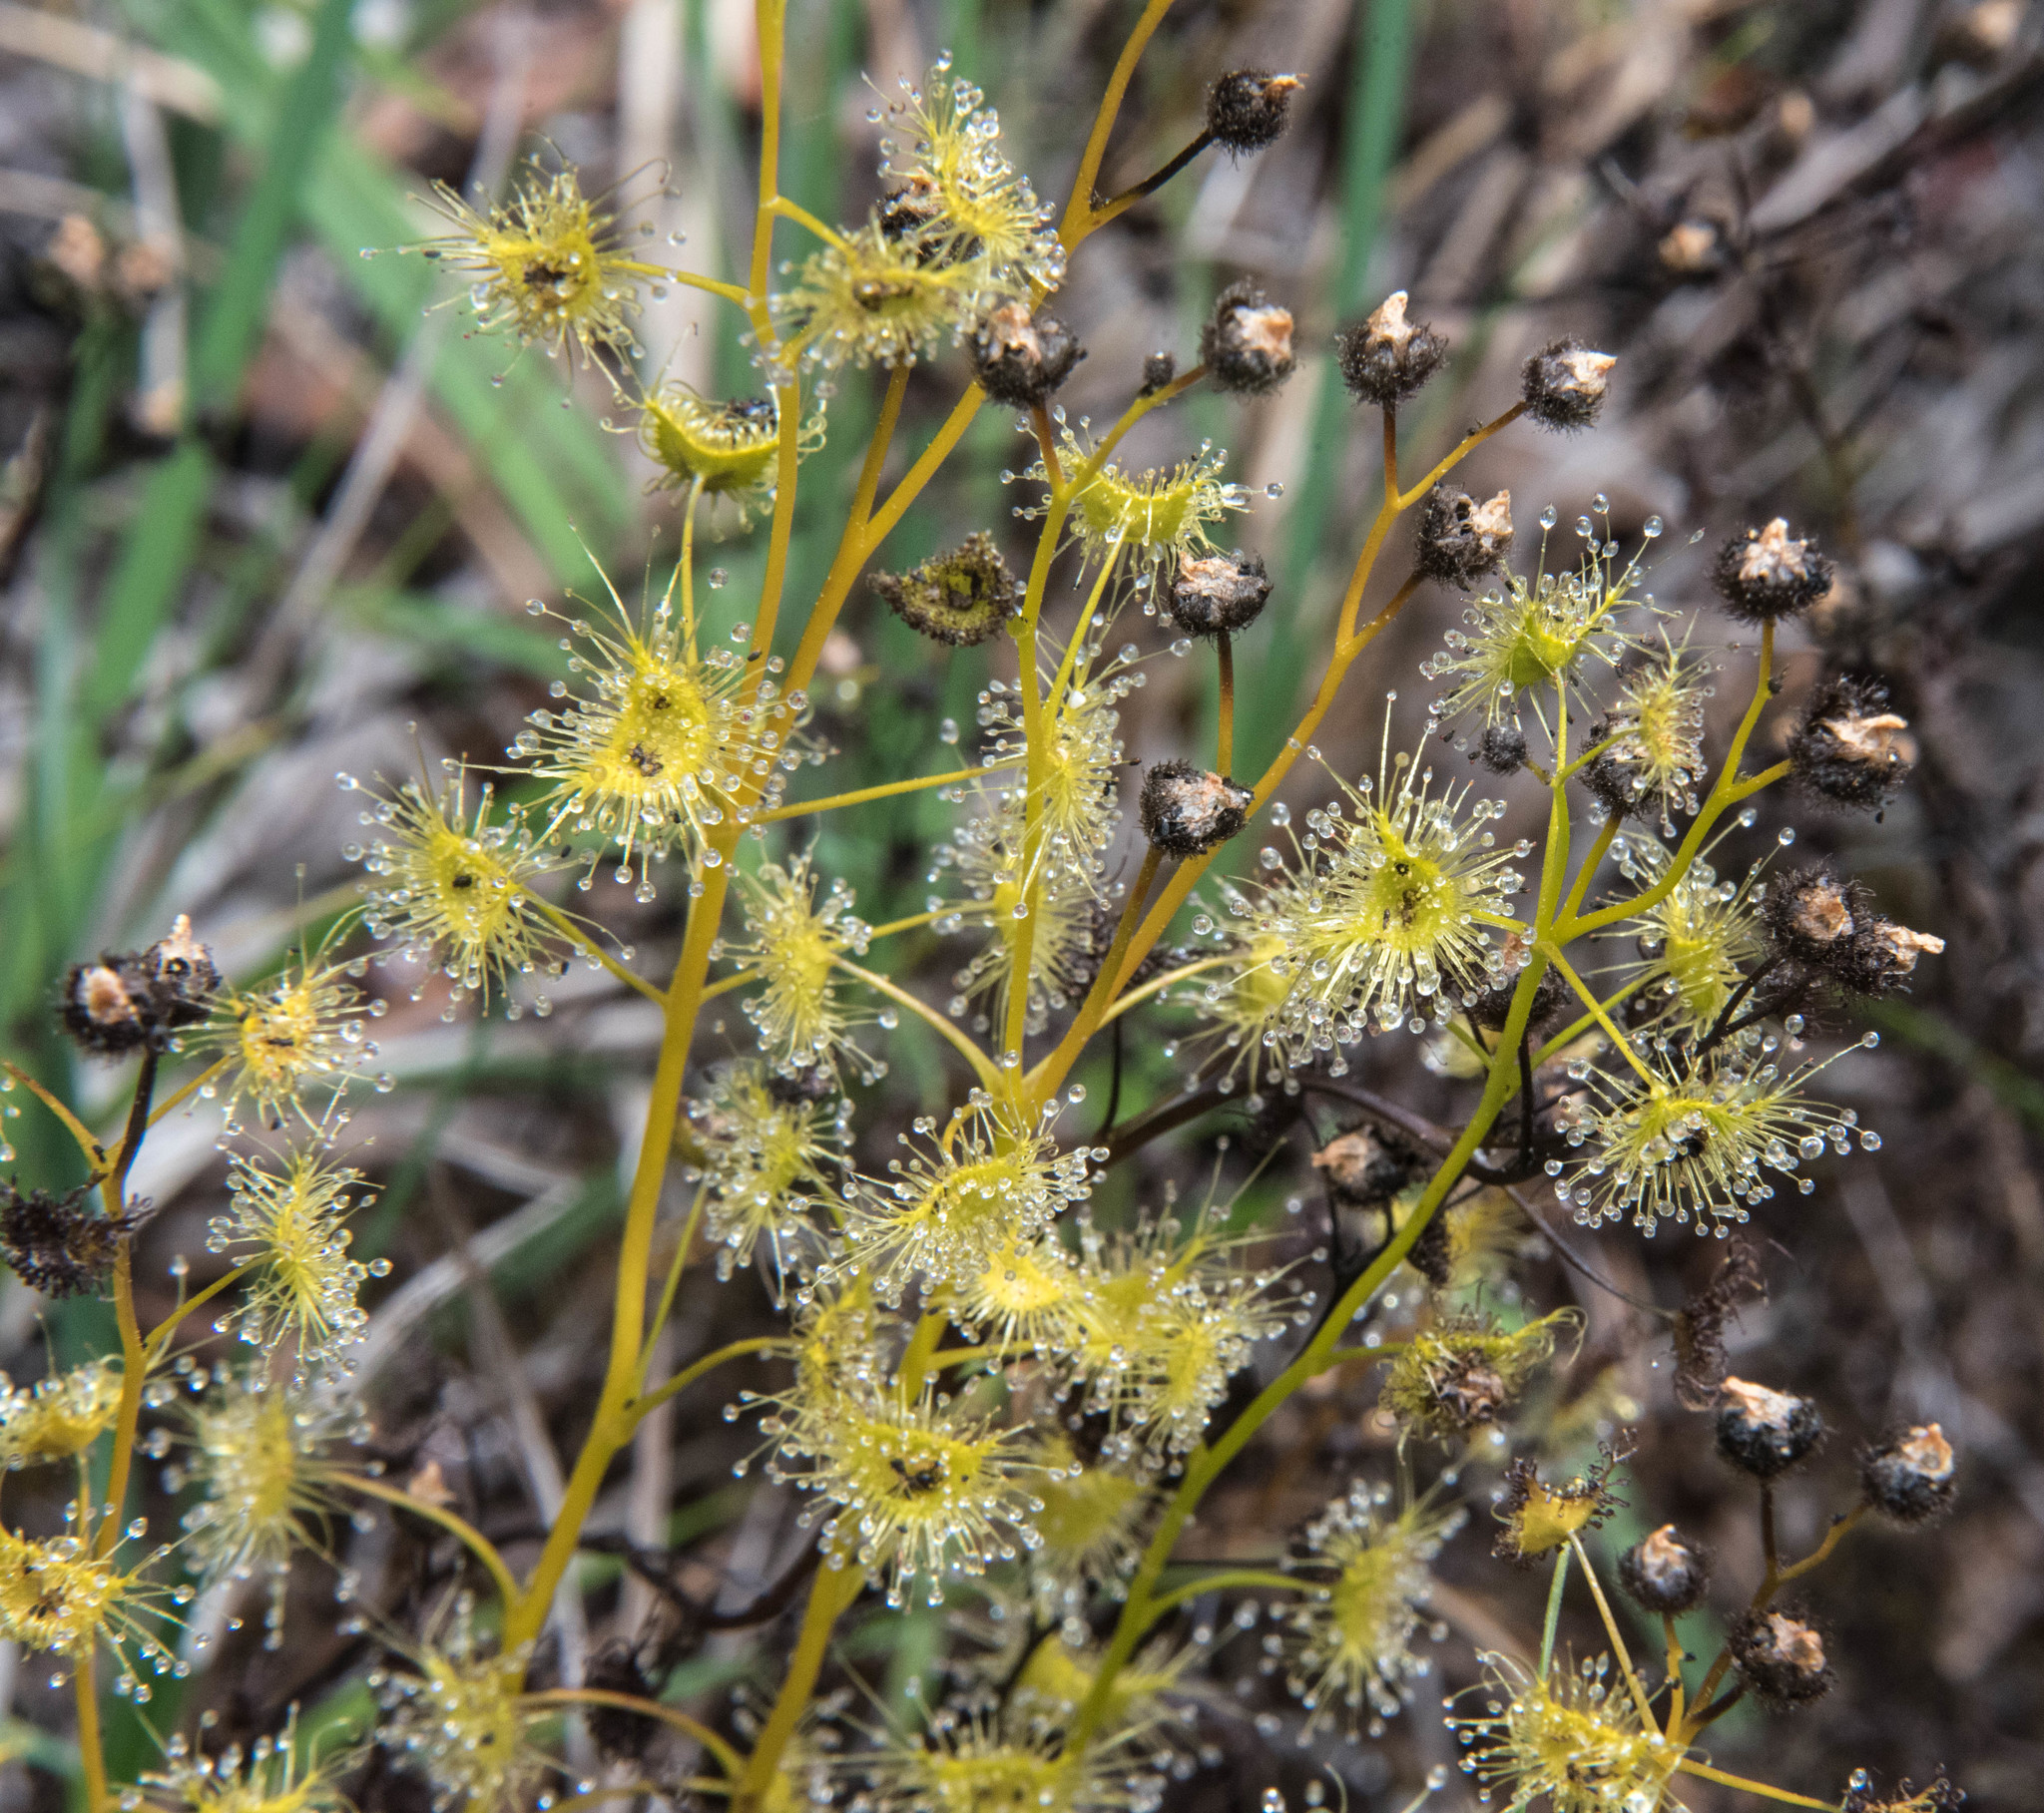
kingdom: Plantae
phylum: Tracheophyta
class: Magnoliopsida
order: Caryophyllales
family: Droseraceae
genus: Drosera
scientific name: Drosera gunniana
